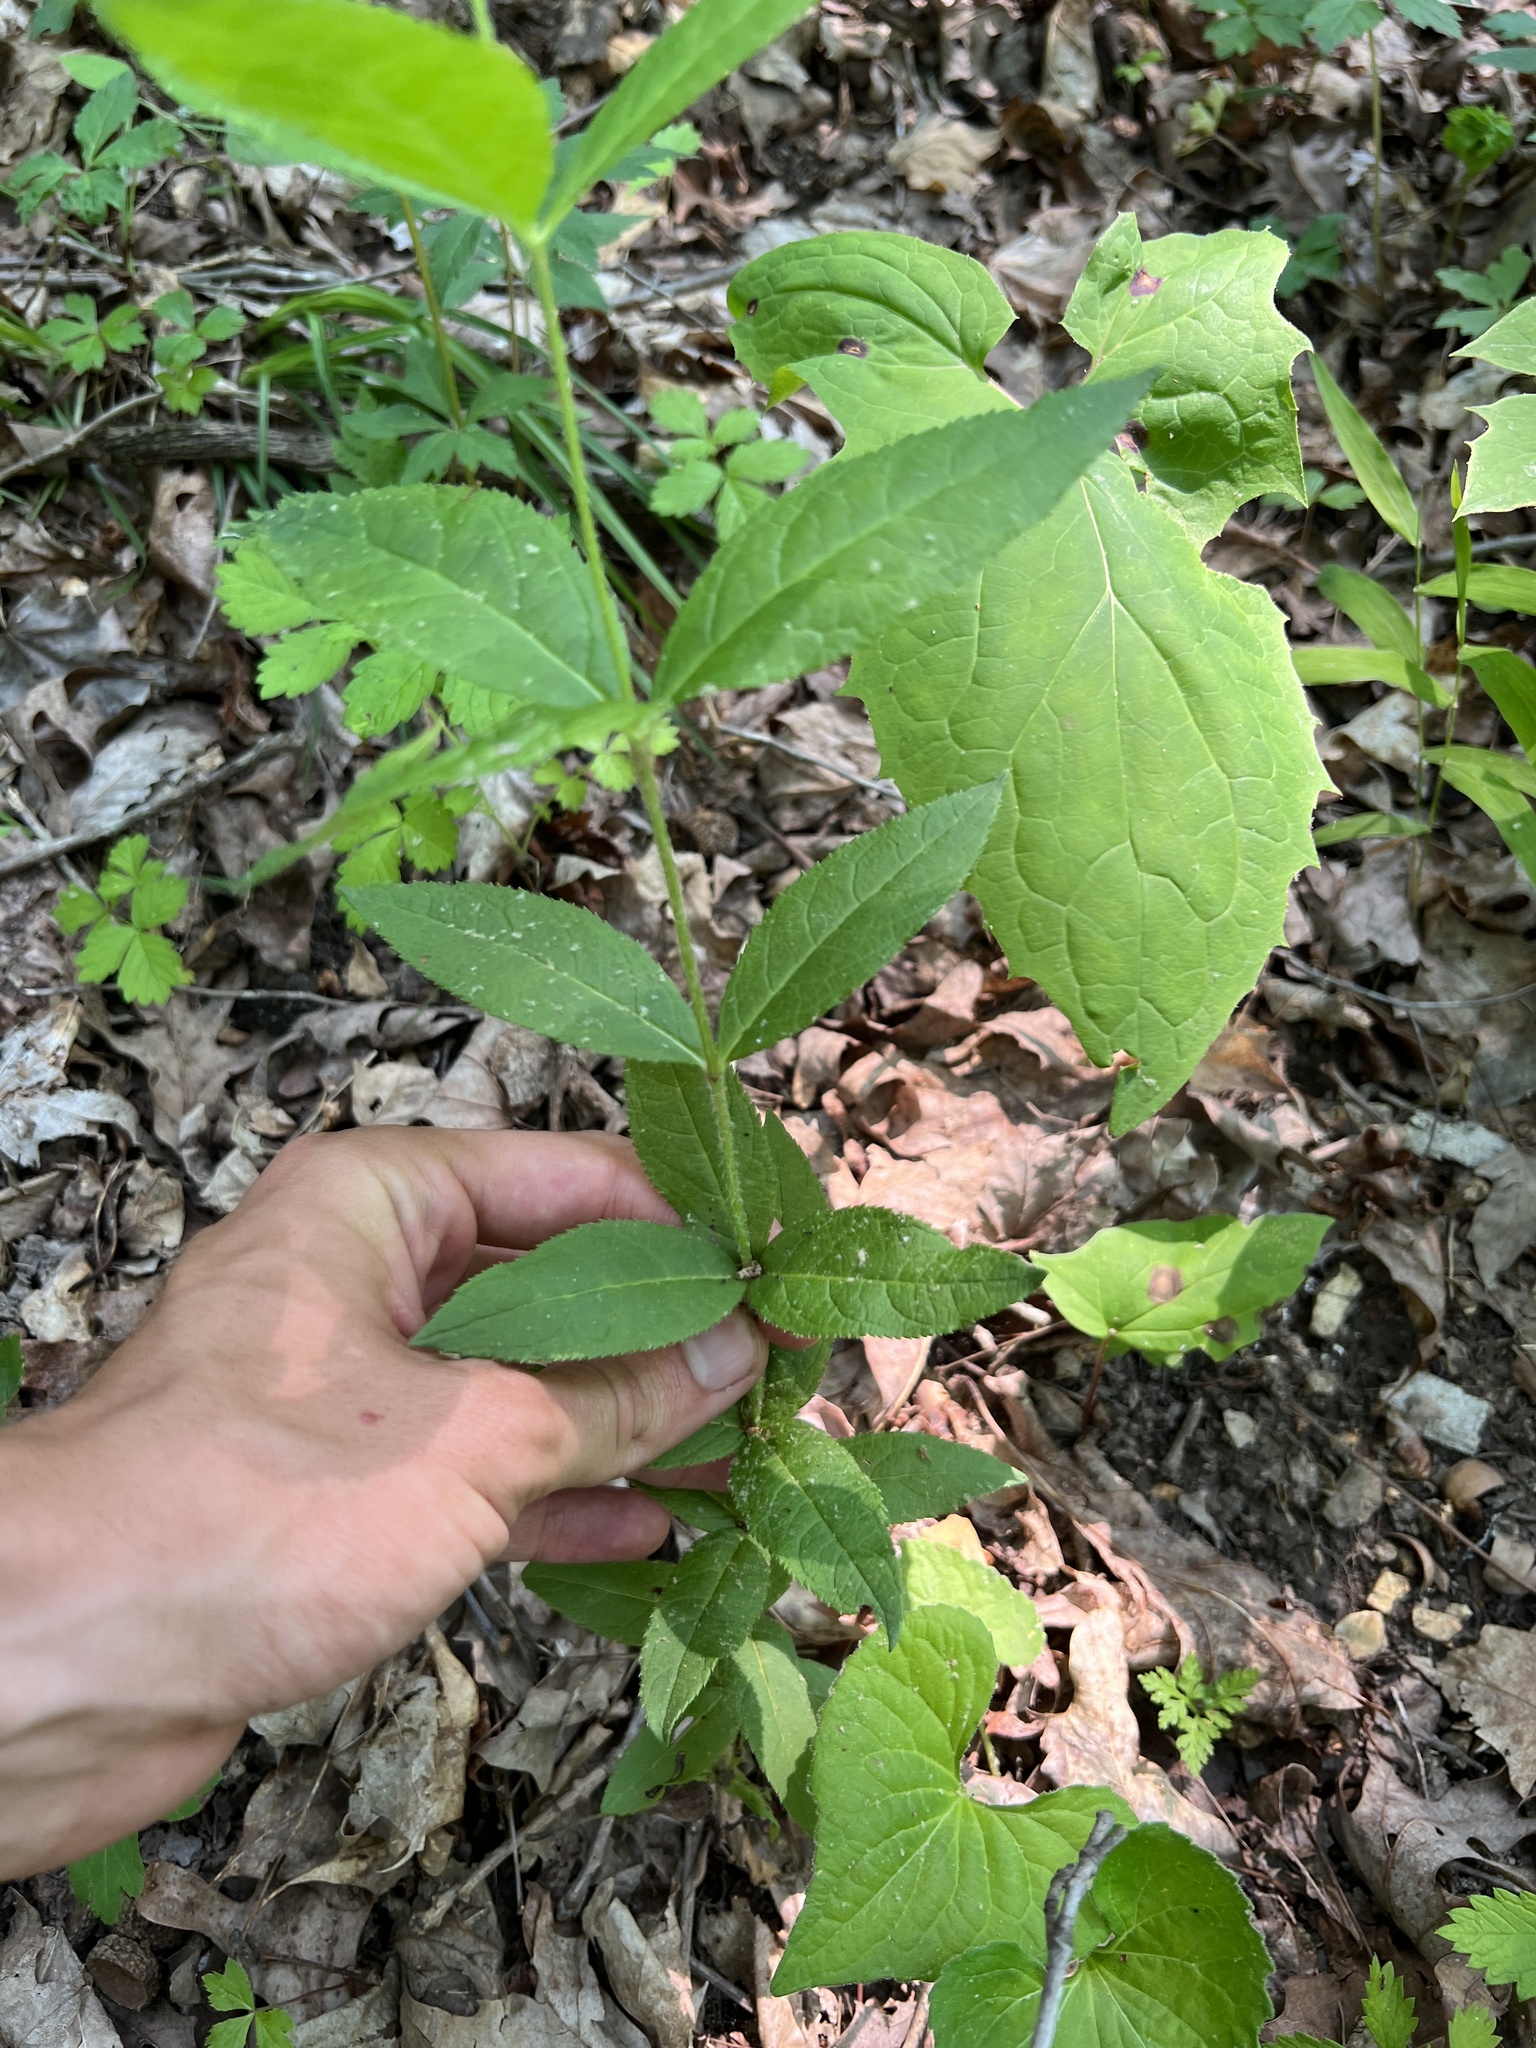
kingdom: Plantae
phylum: Tracheophyta
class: Magnoliopsida
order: Lamiales
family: Plantaginaceae
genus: Veronicastrum
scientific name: Veronicastrum virginicum
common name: Blackroot
